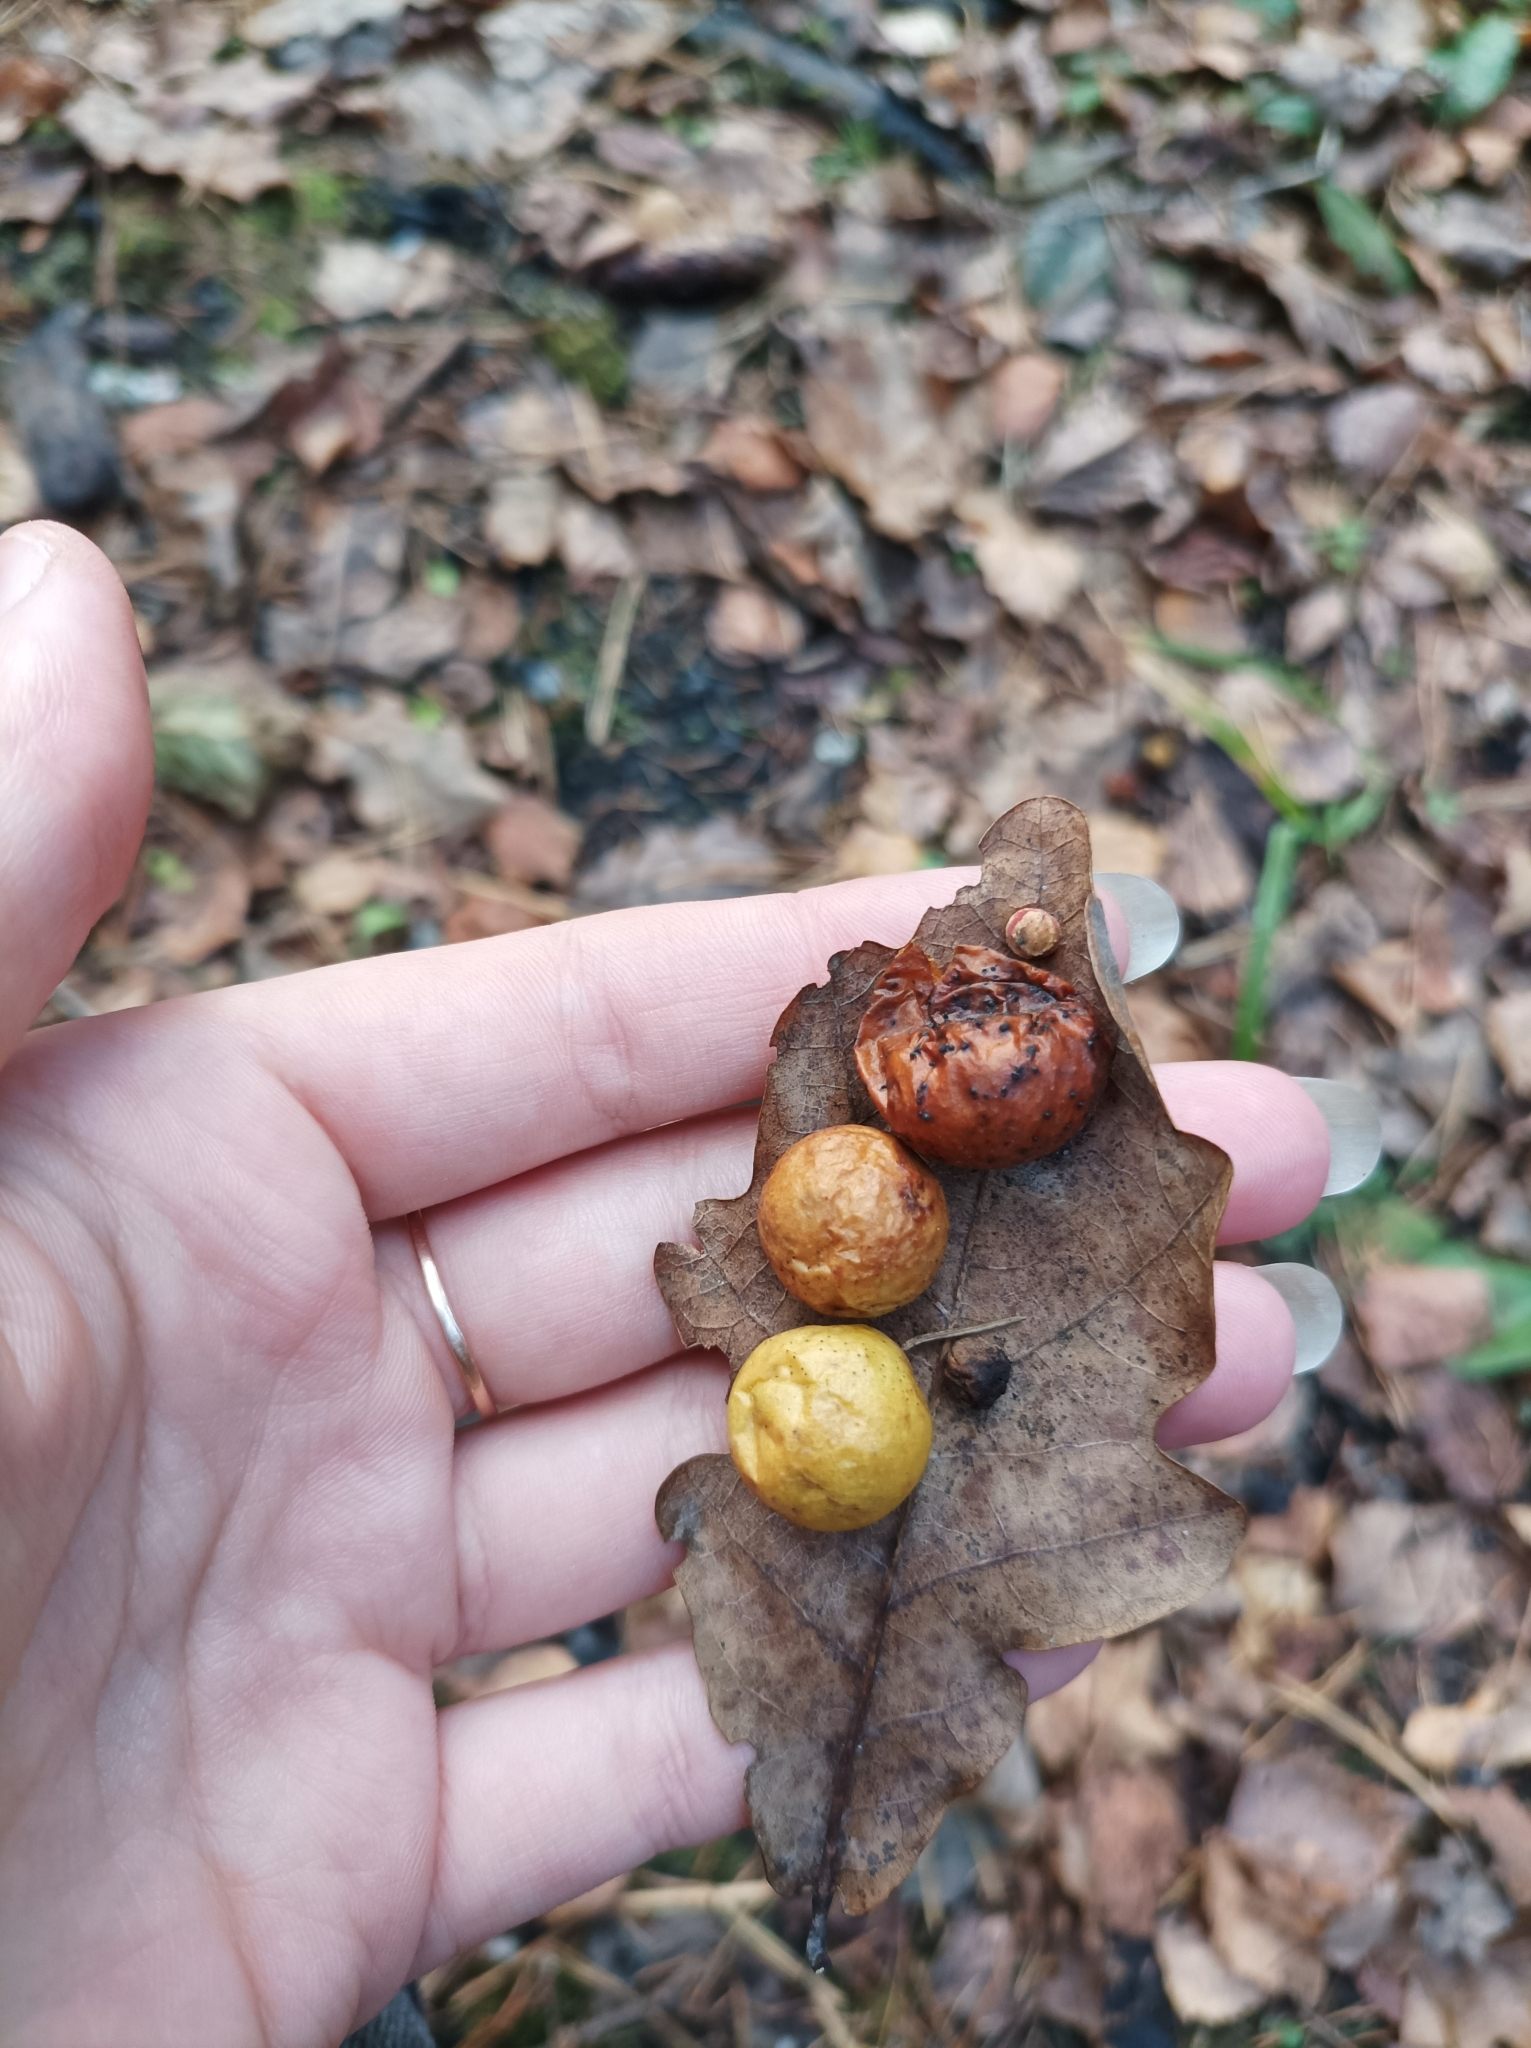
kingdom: Animalia
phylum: Arthropoda
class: Insecta
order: Hymenoptera
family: Cynipidae
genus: Cynips
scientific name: Cynips quercusfolii
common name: Cherry gall
